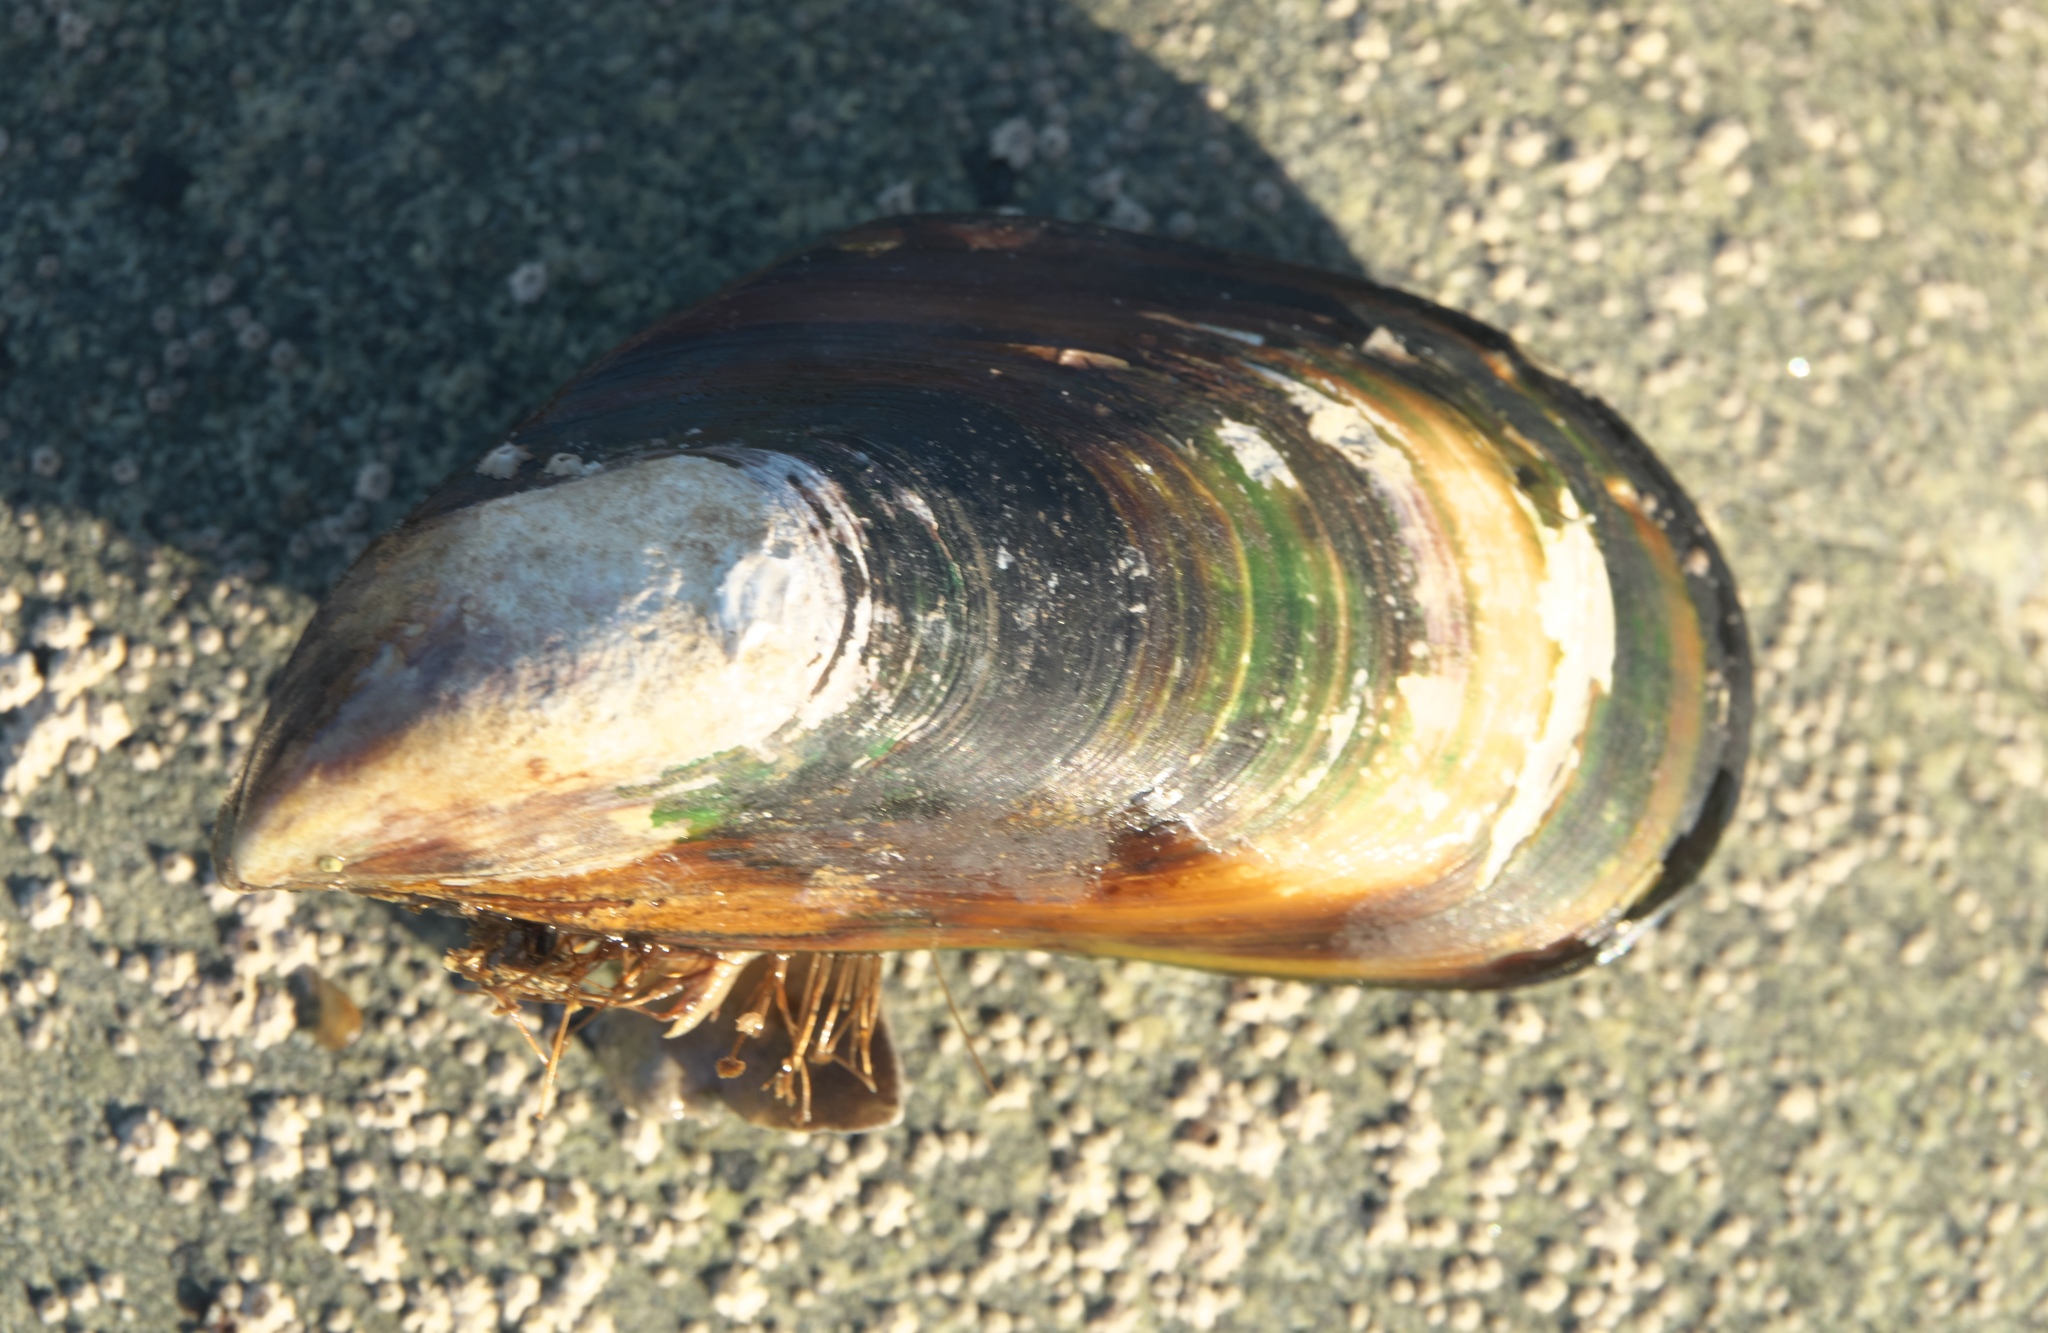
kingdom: Animalia
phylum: Mollusca
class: Bivalvia
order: Mytilida
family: Mytilidae
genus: Perna
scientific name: Perna canaliculus
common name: New zealand greenshelltm
